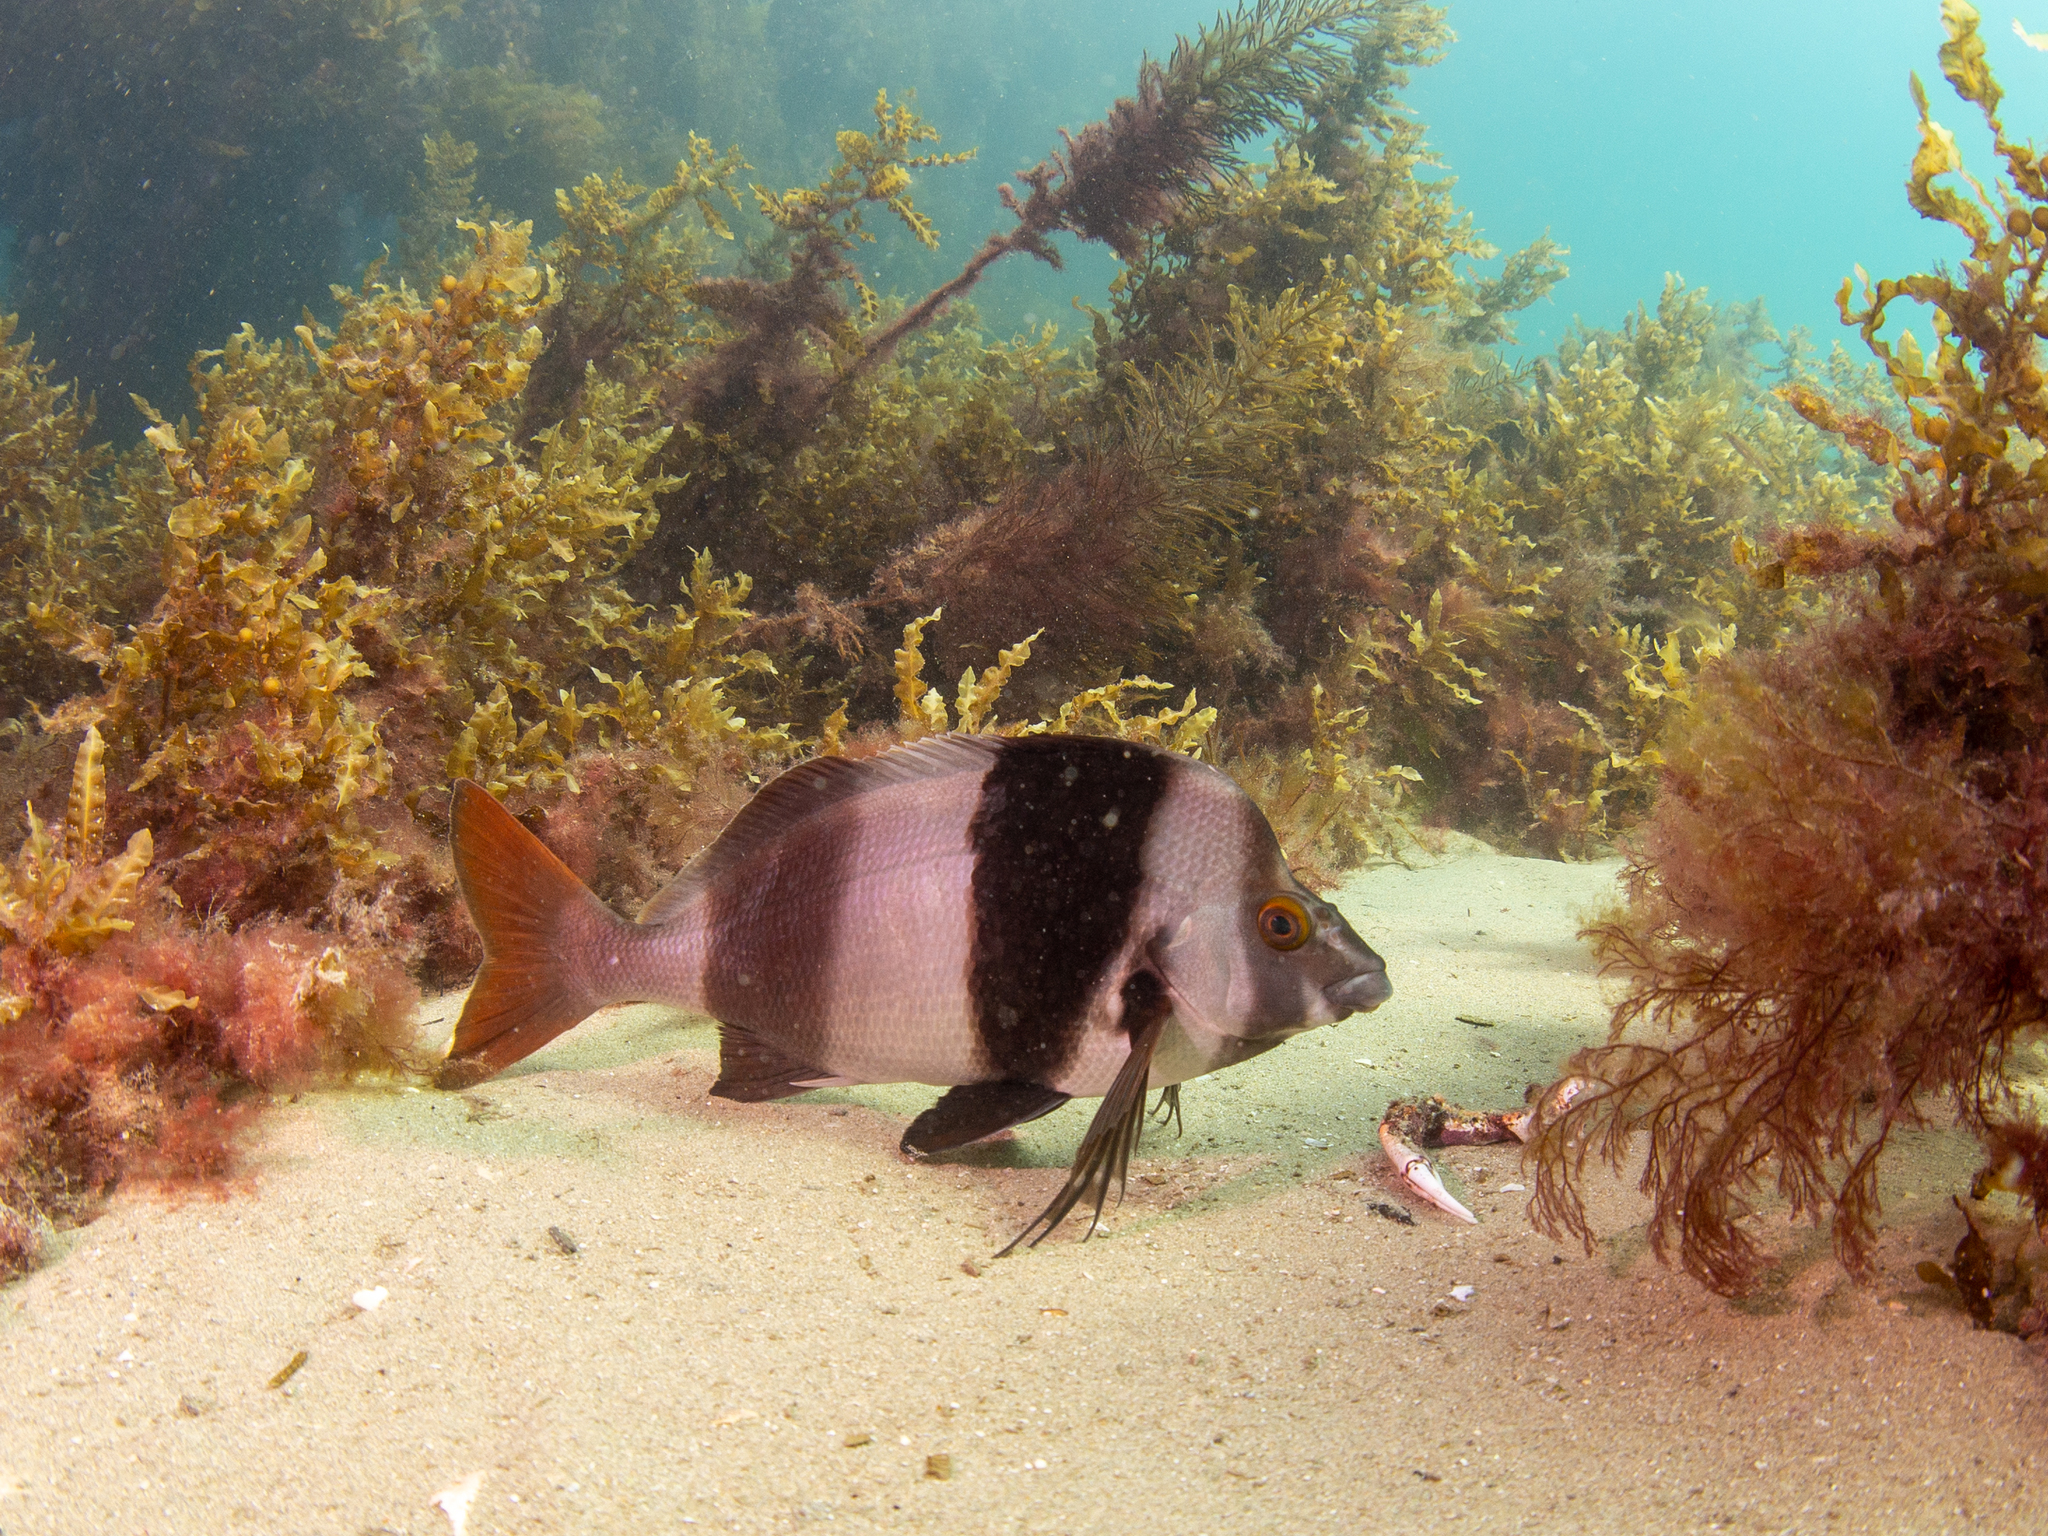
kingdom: Animalia
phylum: Chordata
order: Perciformes
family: Latridae
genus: Pseudogoniistius
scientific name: Pseudogoniistius nigripes
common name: Black-striped morwong
